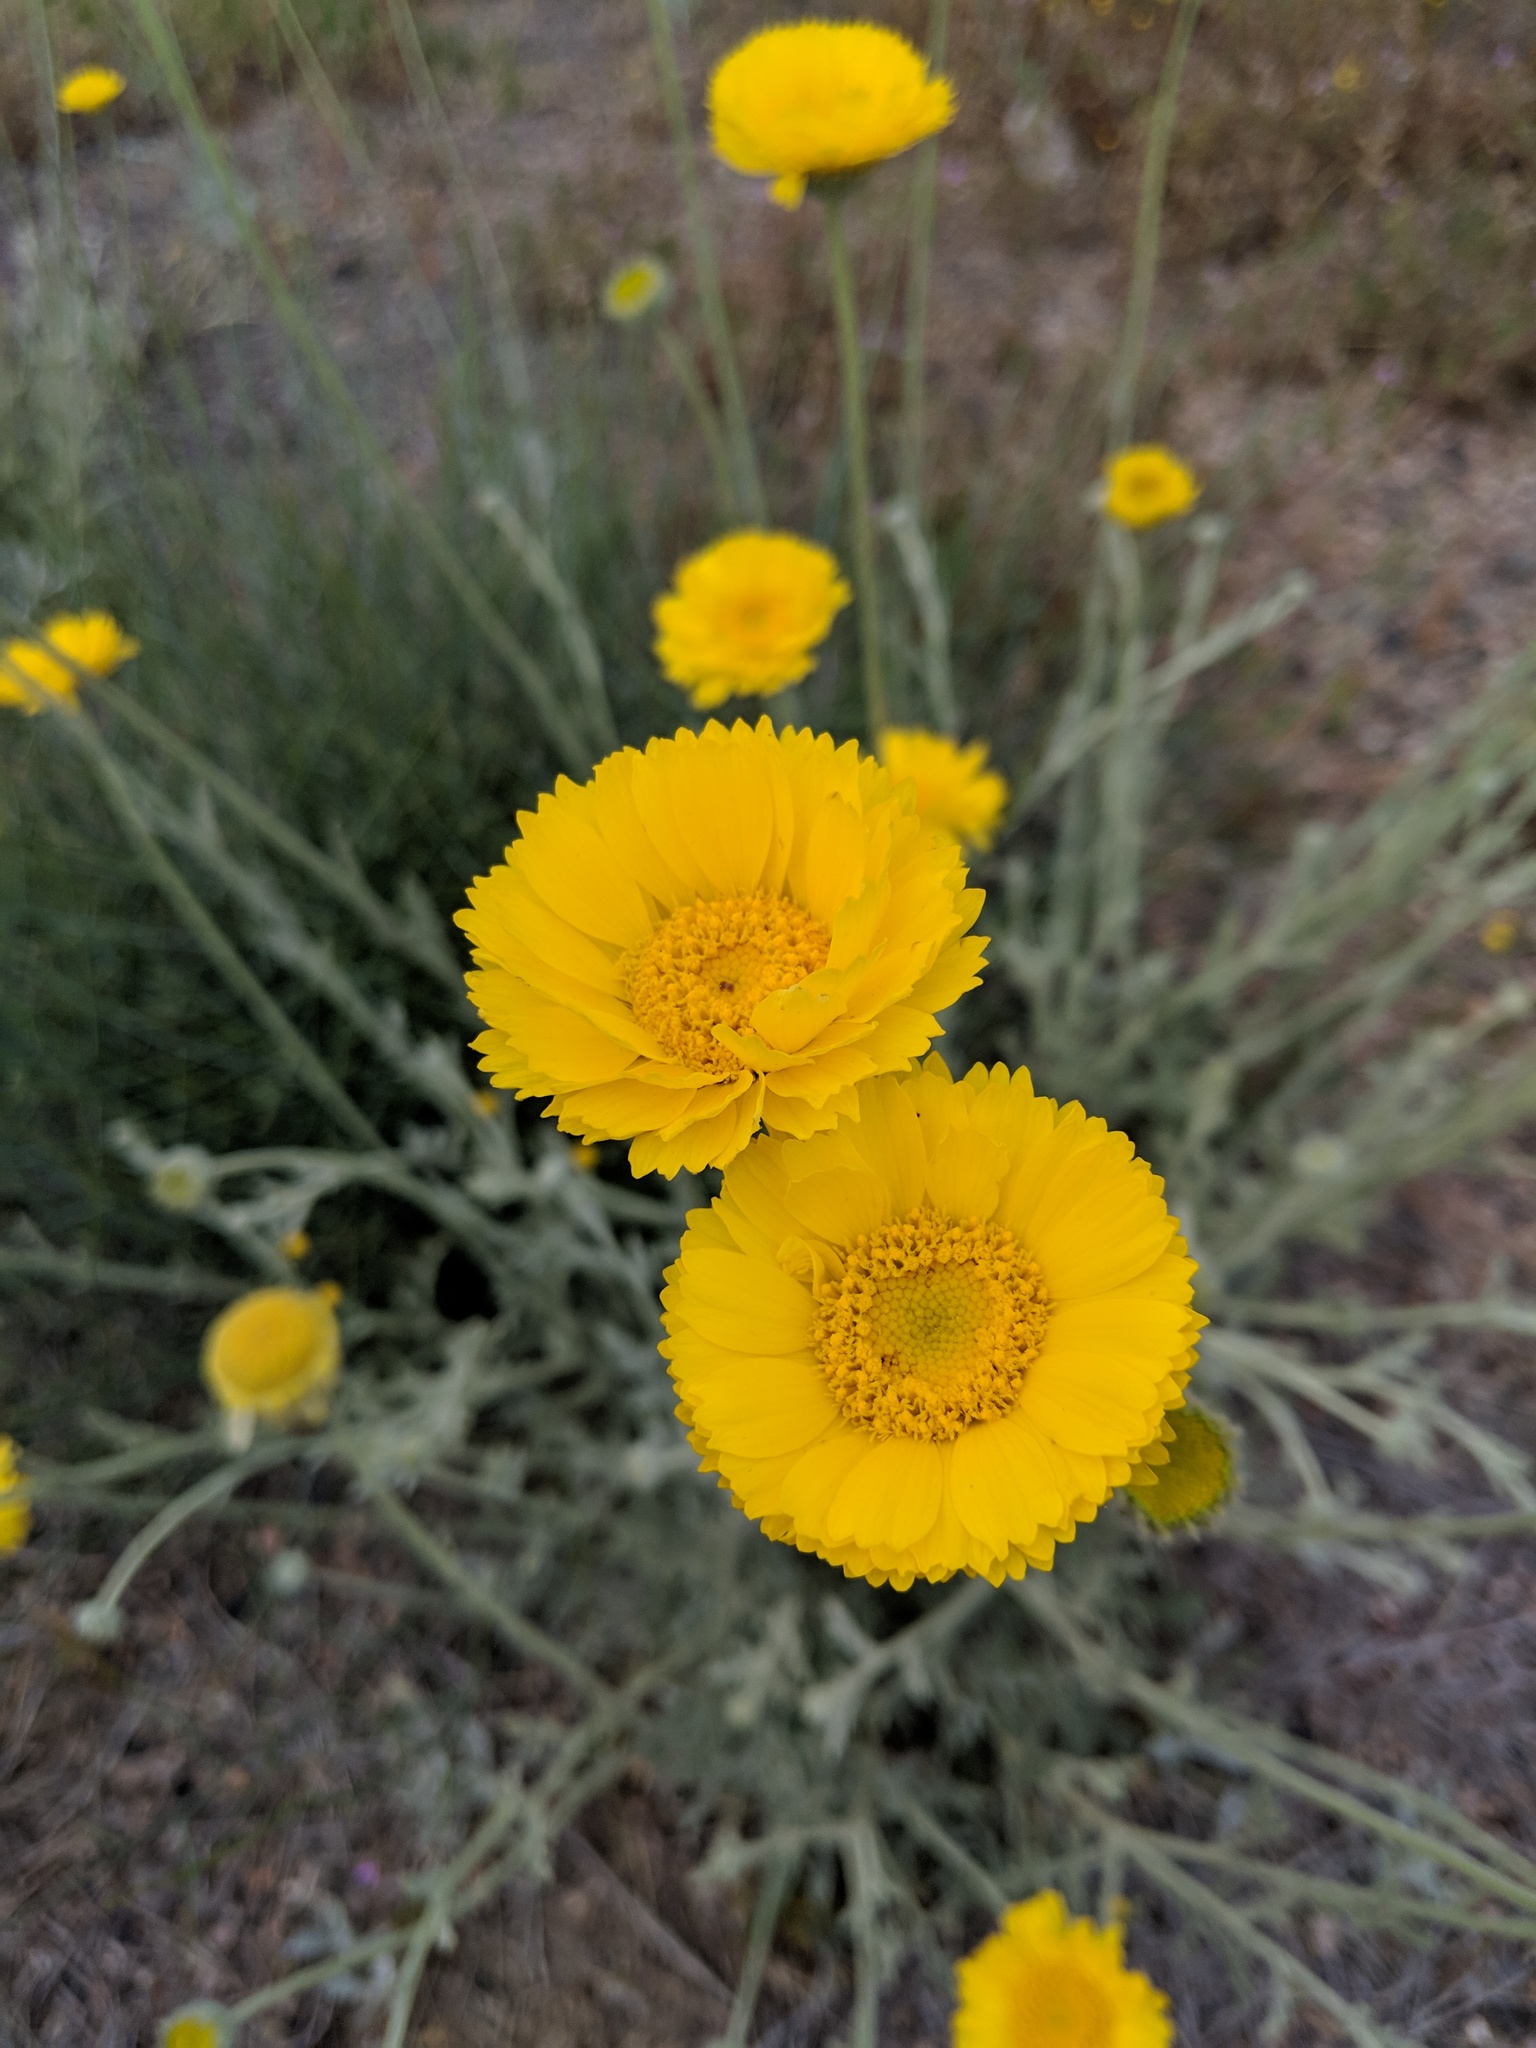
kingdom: Plantae
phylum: Tracheophyta
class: Magnoliopsida
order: Asterales
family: Asteraceae
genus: Baileya
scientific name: Baileya multiradiata
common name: Desert-marigold
